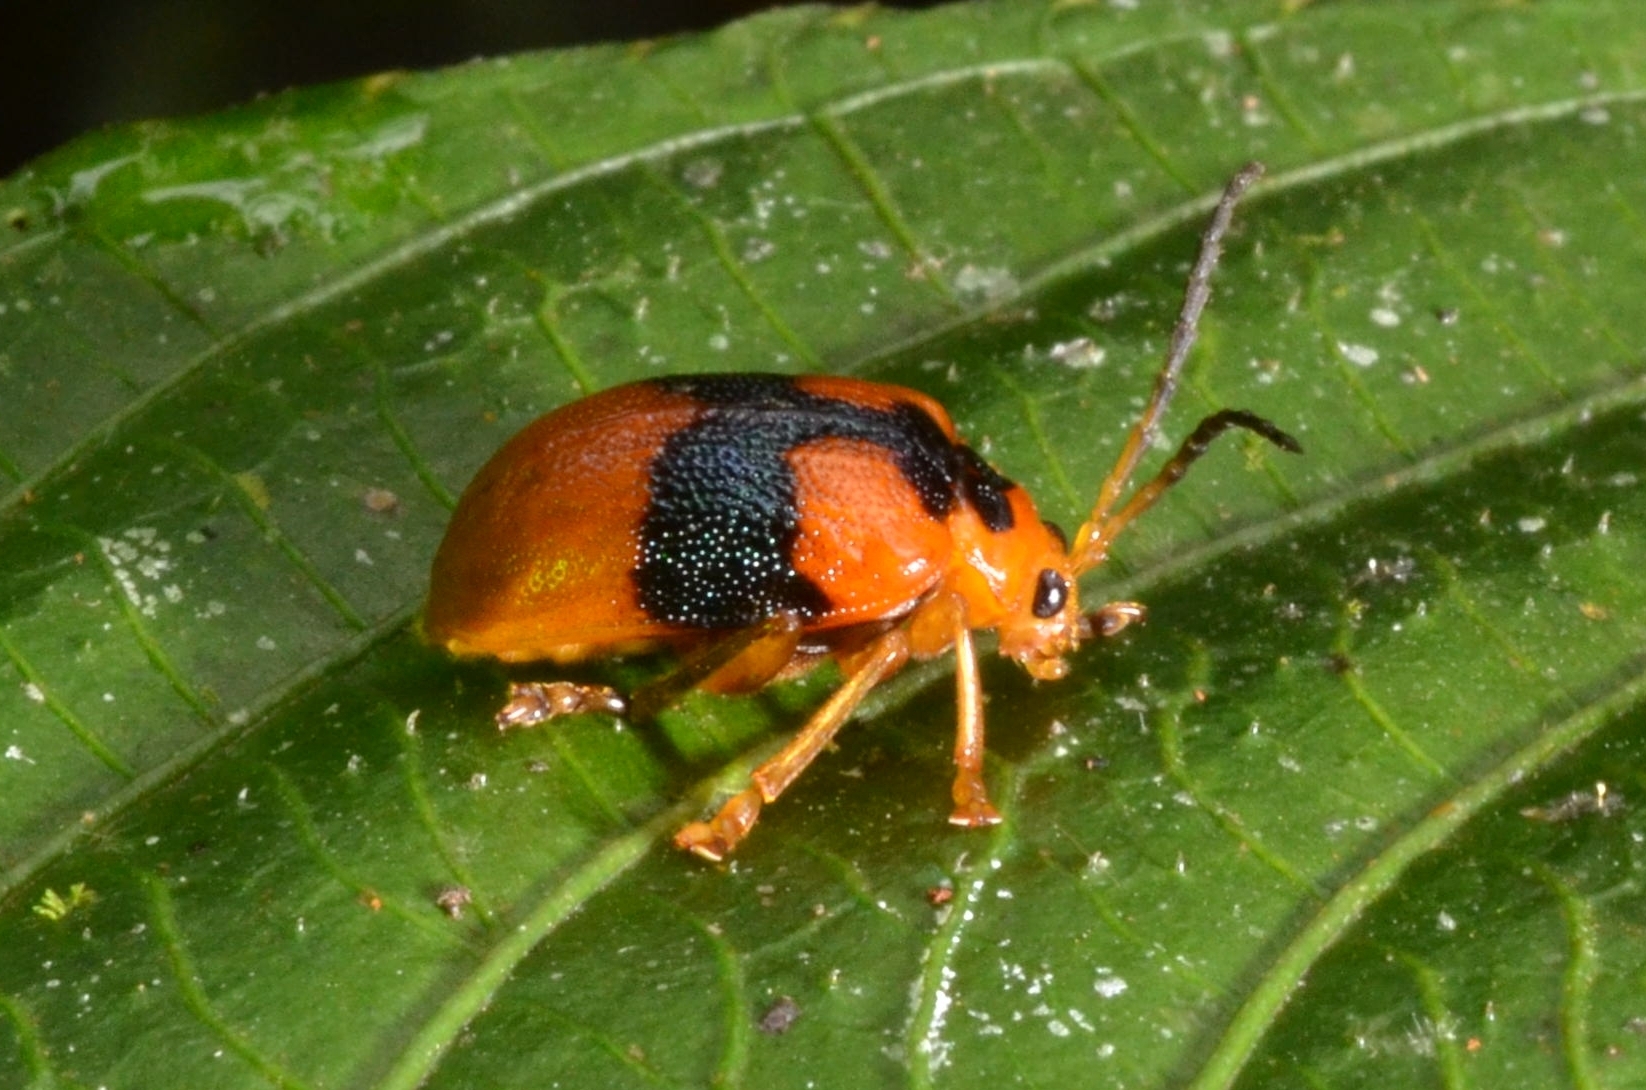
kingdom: Animalia
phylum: Arthropoda
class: Insecta
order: Coleoptera
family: Chrysomelidae
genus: Aplosonyx
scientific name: Aplosonyx ancora
